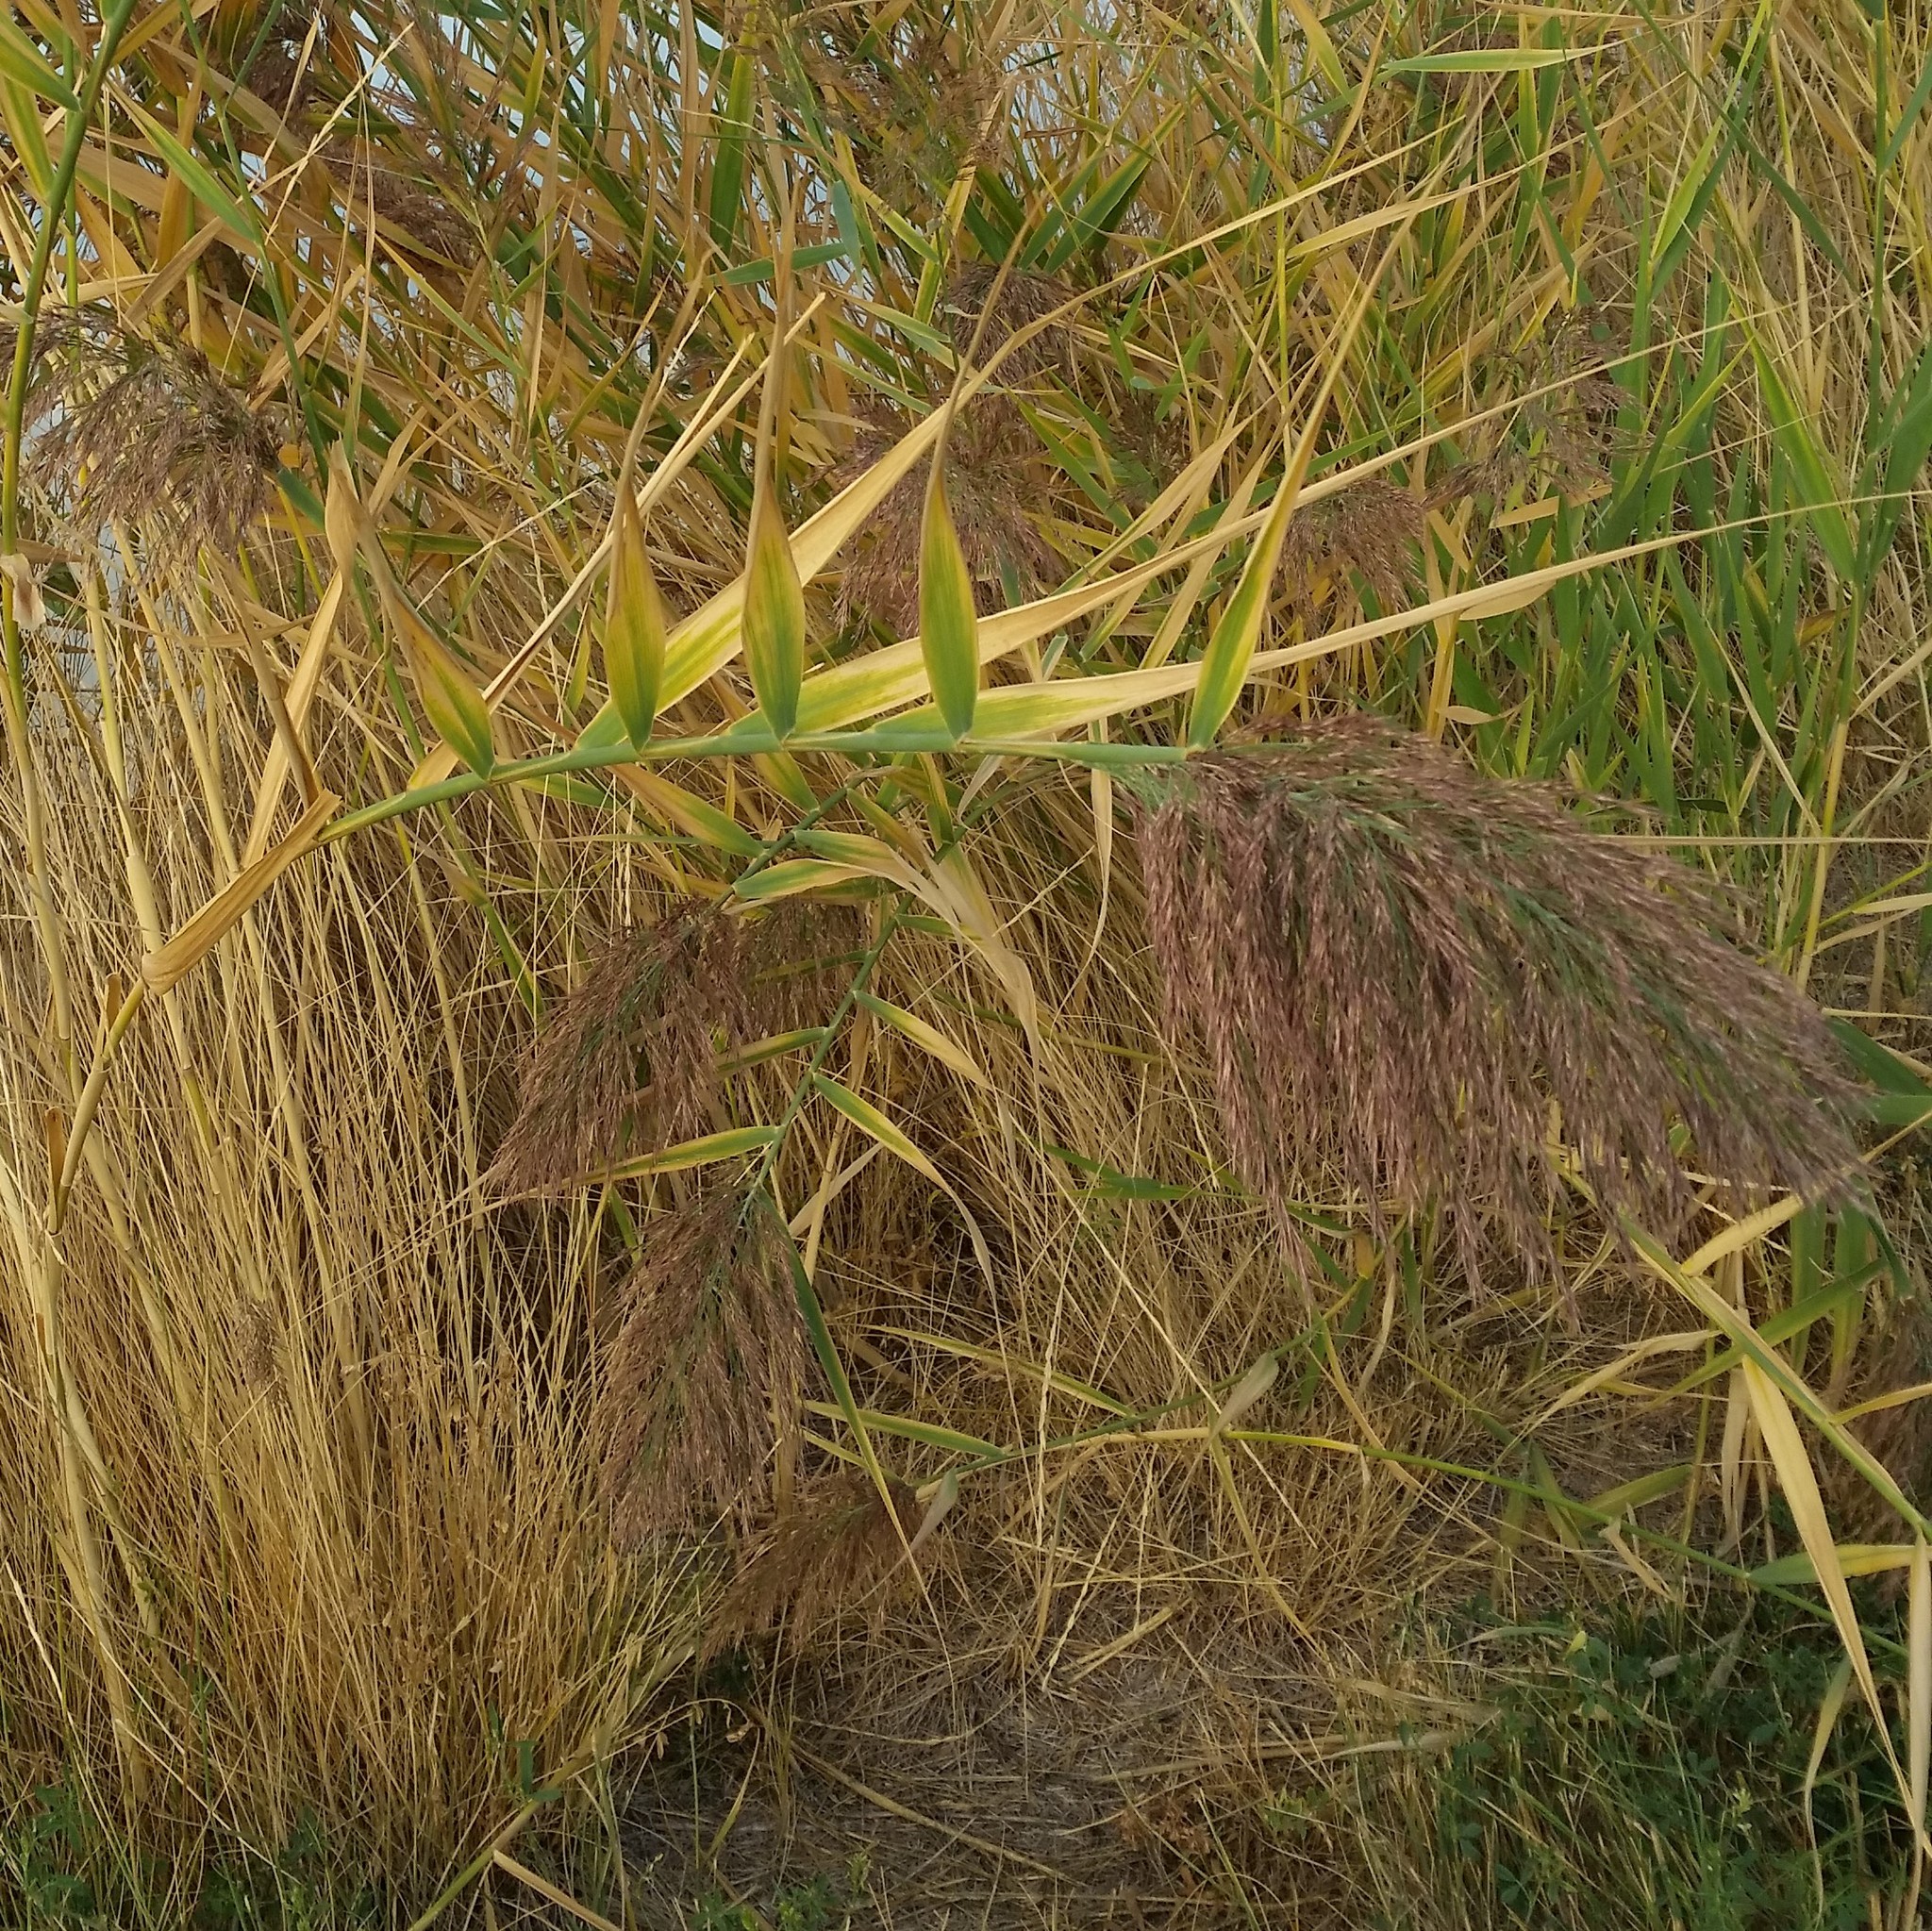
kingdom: Plantae
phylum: Tracheophyta
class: Liliopsida
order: Poales
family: Poaceae
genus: Phragmites
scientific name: Phragmites australis
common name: Common reed
